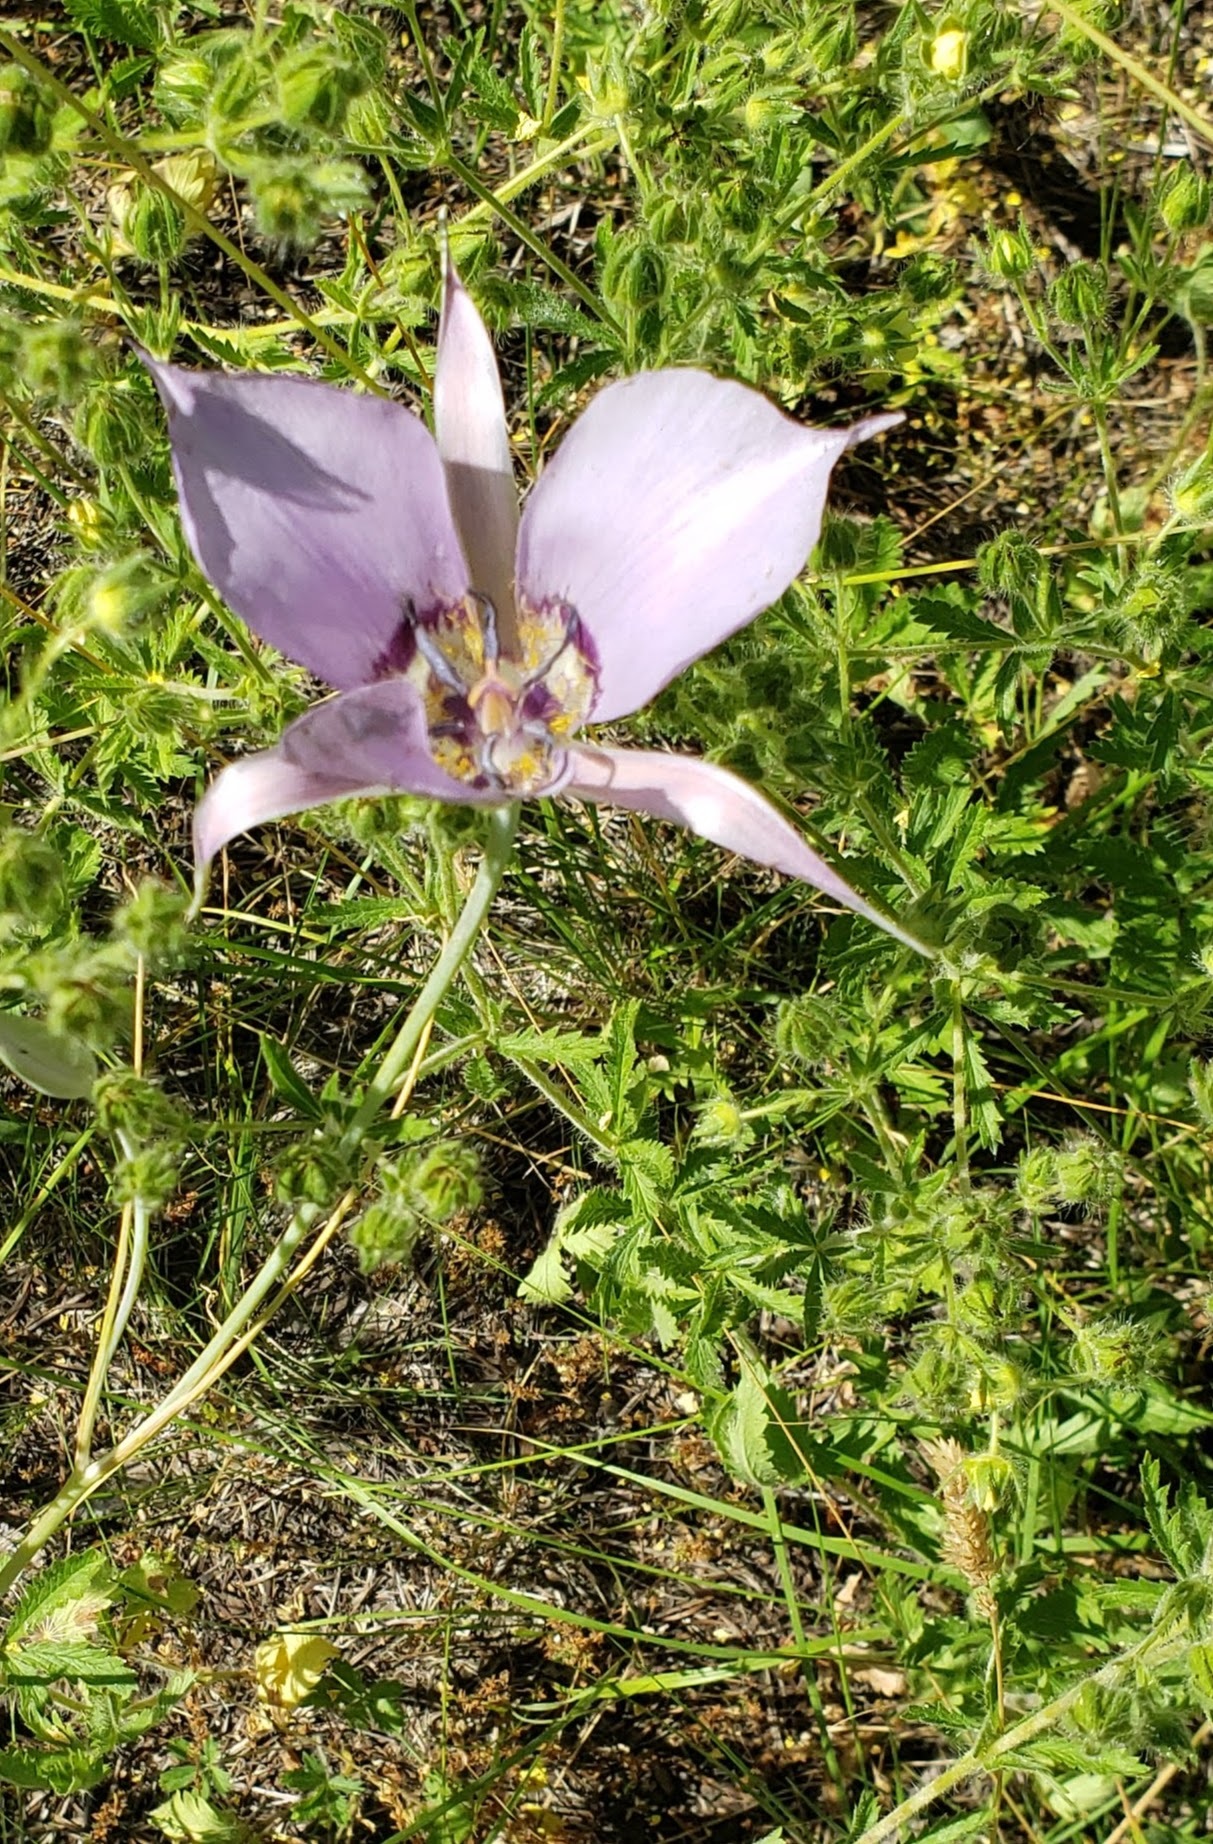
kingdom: Plantae
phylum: Tracheophyta
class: Liliopsida
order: Liliales
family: Liliaceae
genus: Calochortus
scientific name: Calochortus macrocarpus
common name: Green-band mariposa lily
